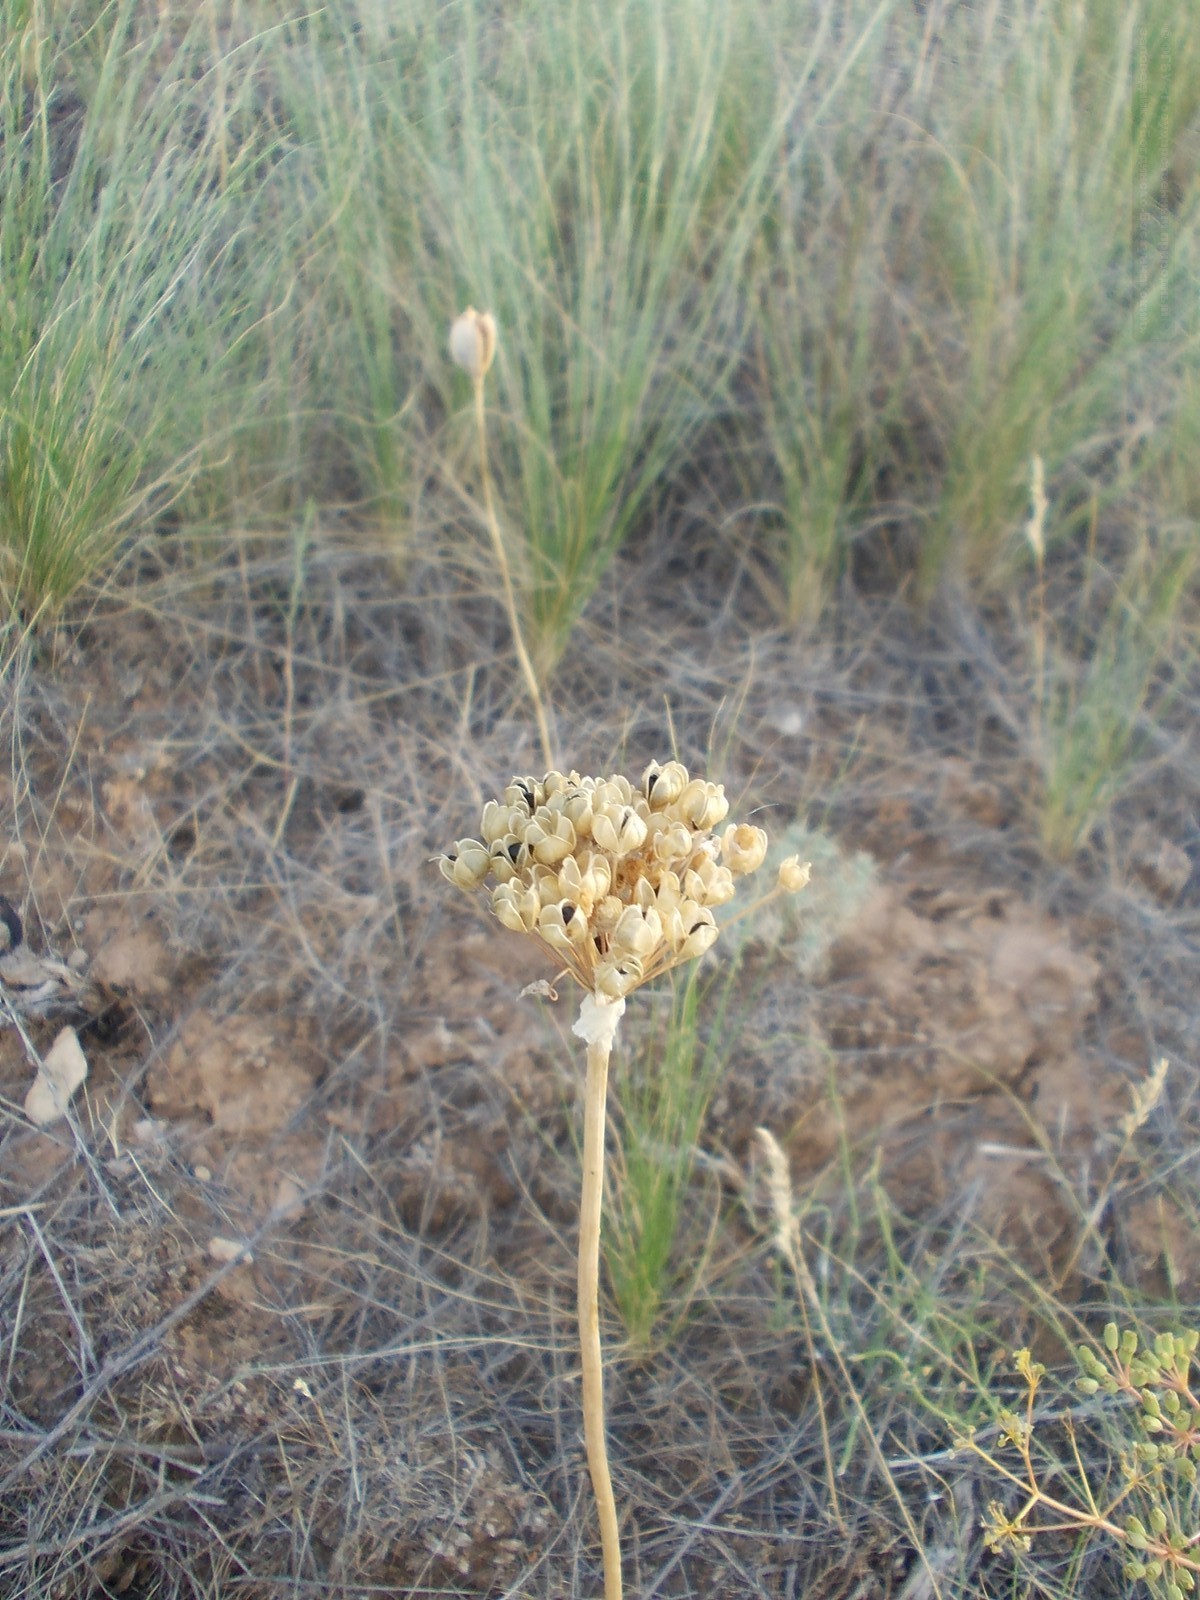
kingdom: Plantae
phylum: Tracheophyta
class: Liliopsida
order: Asparagales
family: Amaryllidaceae
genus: Allium
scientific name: Allium tulipifolium
